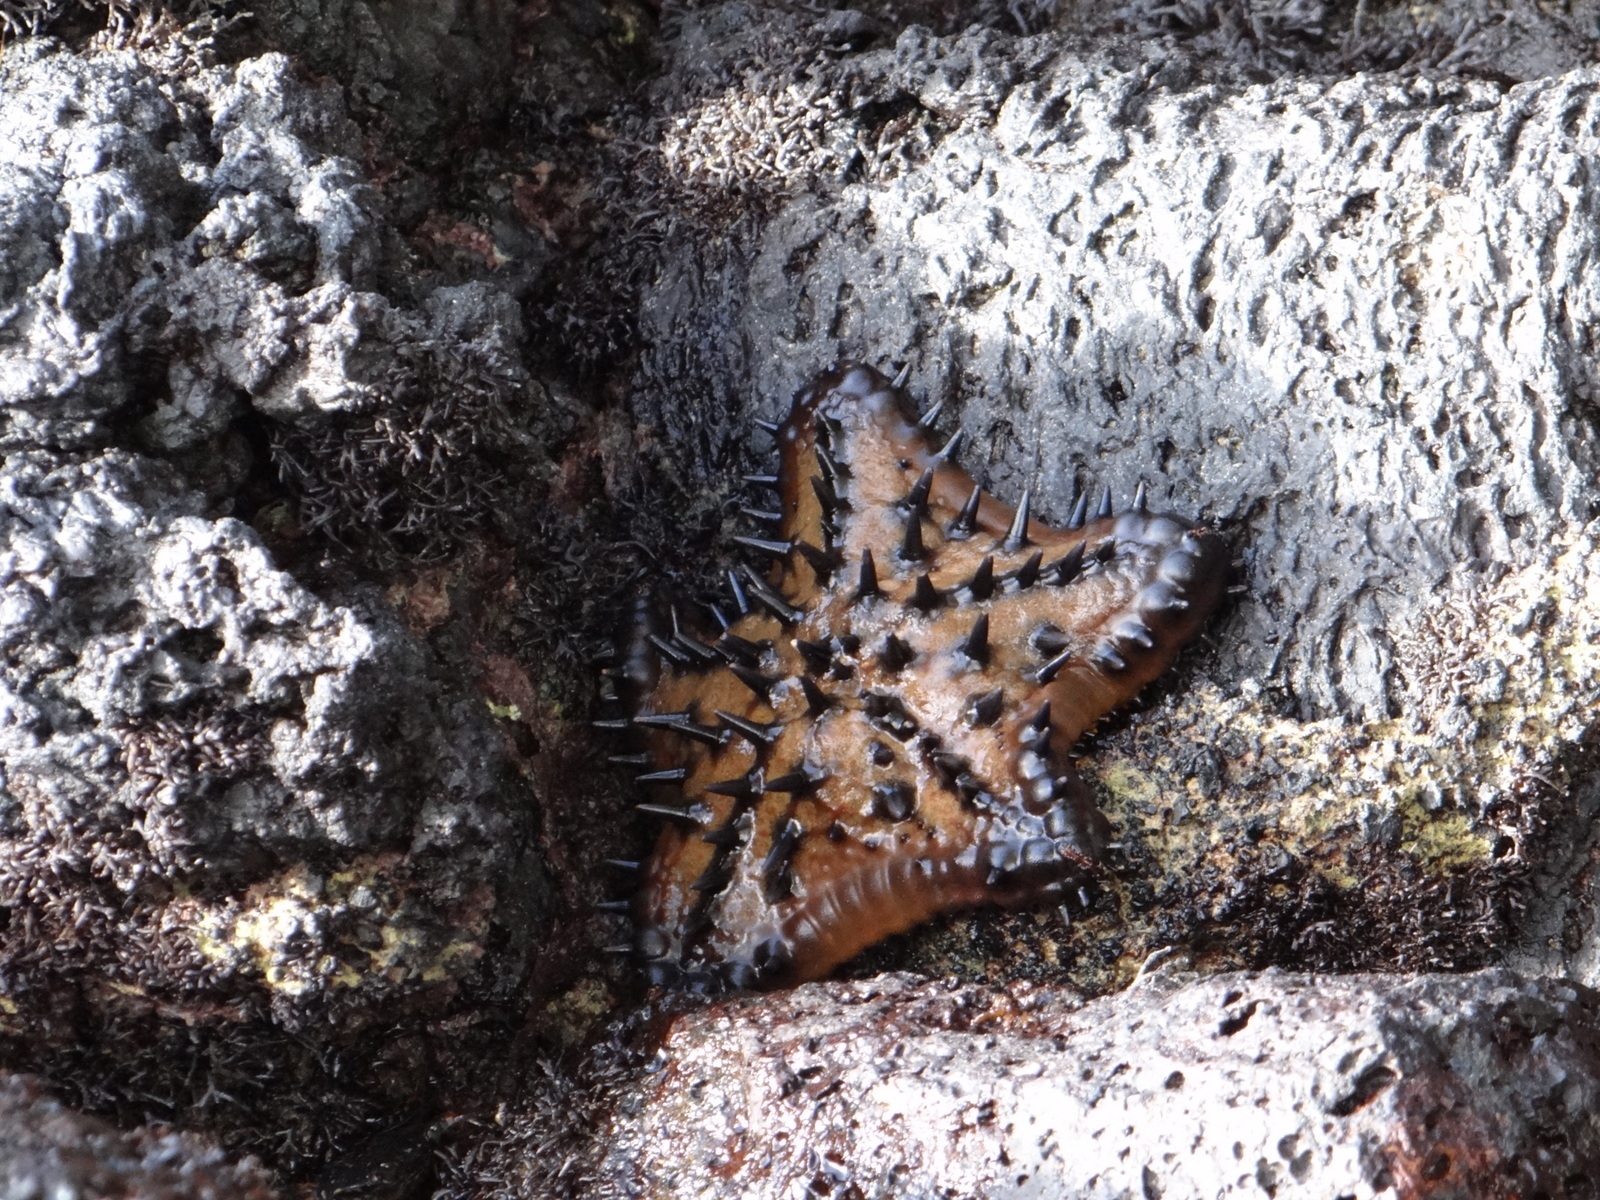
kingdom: Animalia
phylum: Echinodermata
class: Asteroidea
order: Valvatida
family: Oreasteridae
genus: Nidorellia
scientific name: Nidorellia armata
